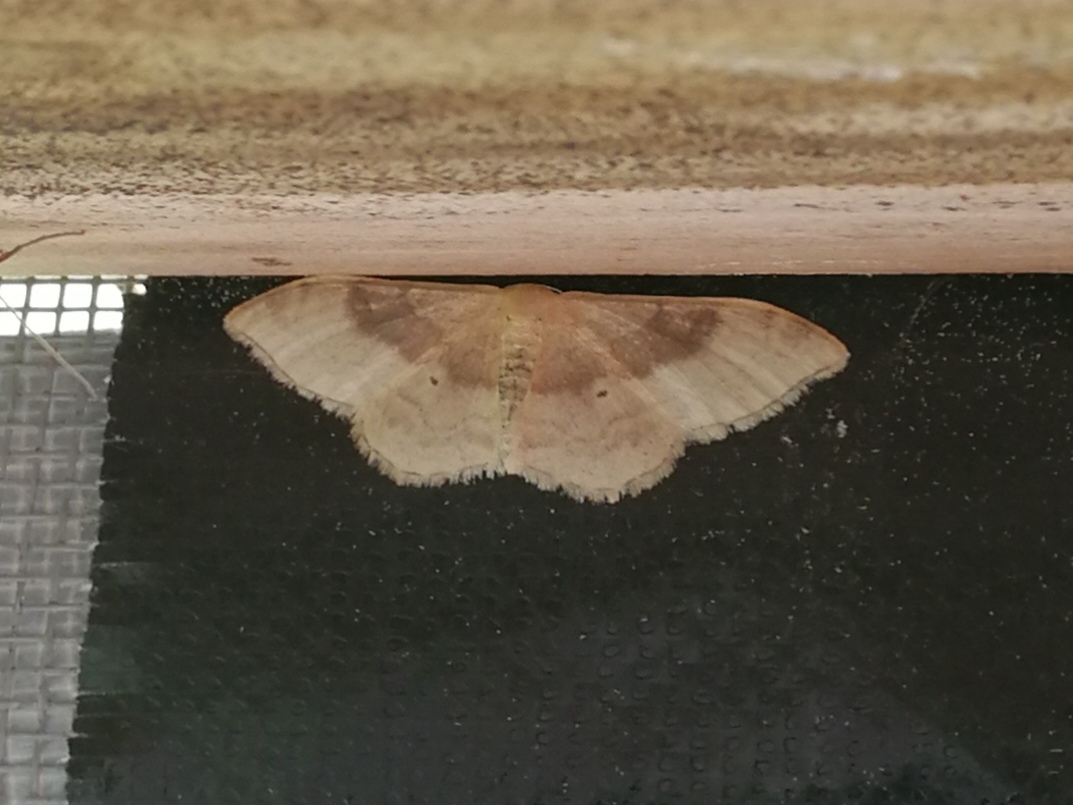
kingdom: Animalia
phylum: Arthropoda
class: Insecta
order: Lepidoptera
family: Geometridae
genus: Idaea
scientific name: Idaea degeneraria
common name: Portland ribbon wave
